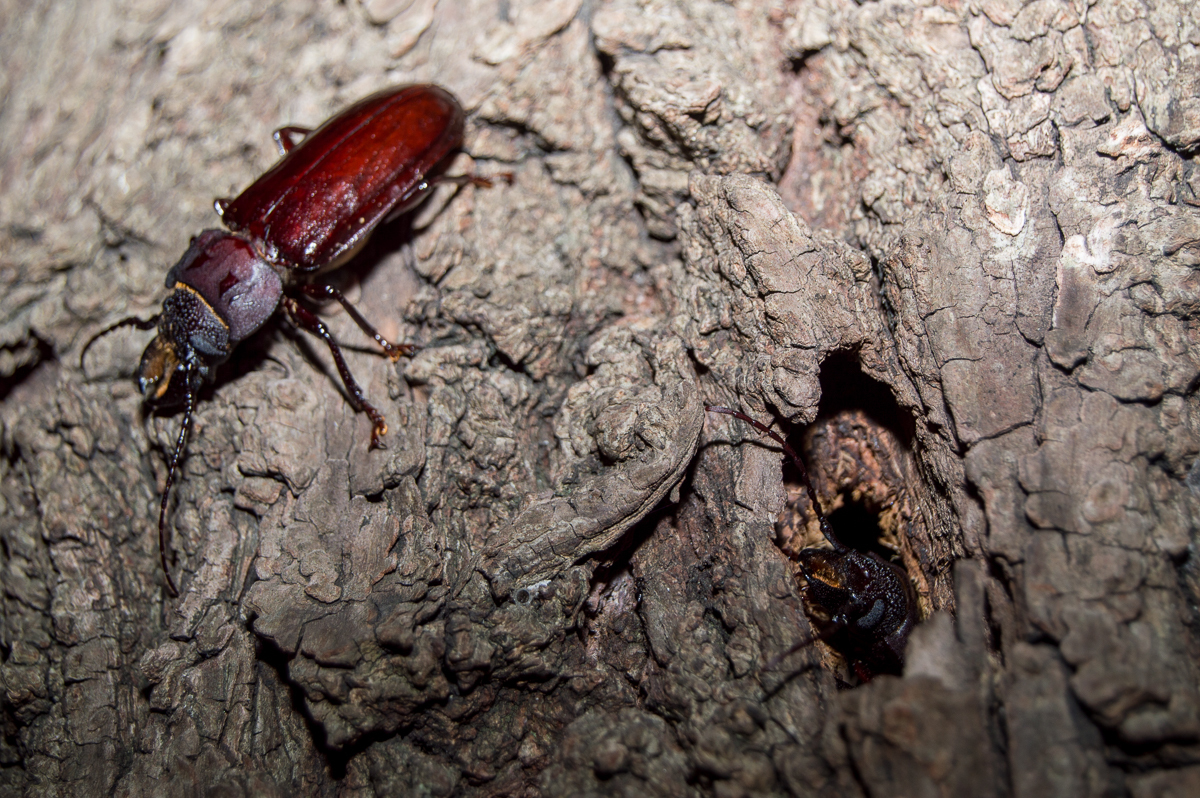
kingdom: Animalia
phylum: Arthropoda
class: Insecta
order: Coleoptera
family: Cerambycidae
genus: Mallodon
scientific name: Mallodon dasystomum
